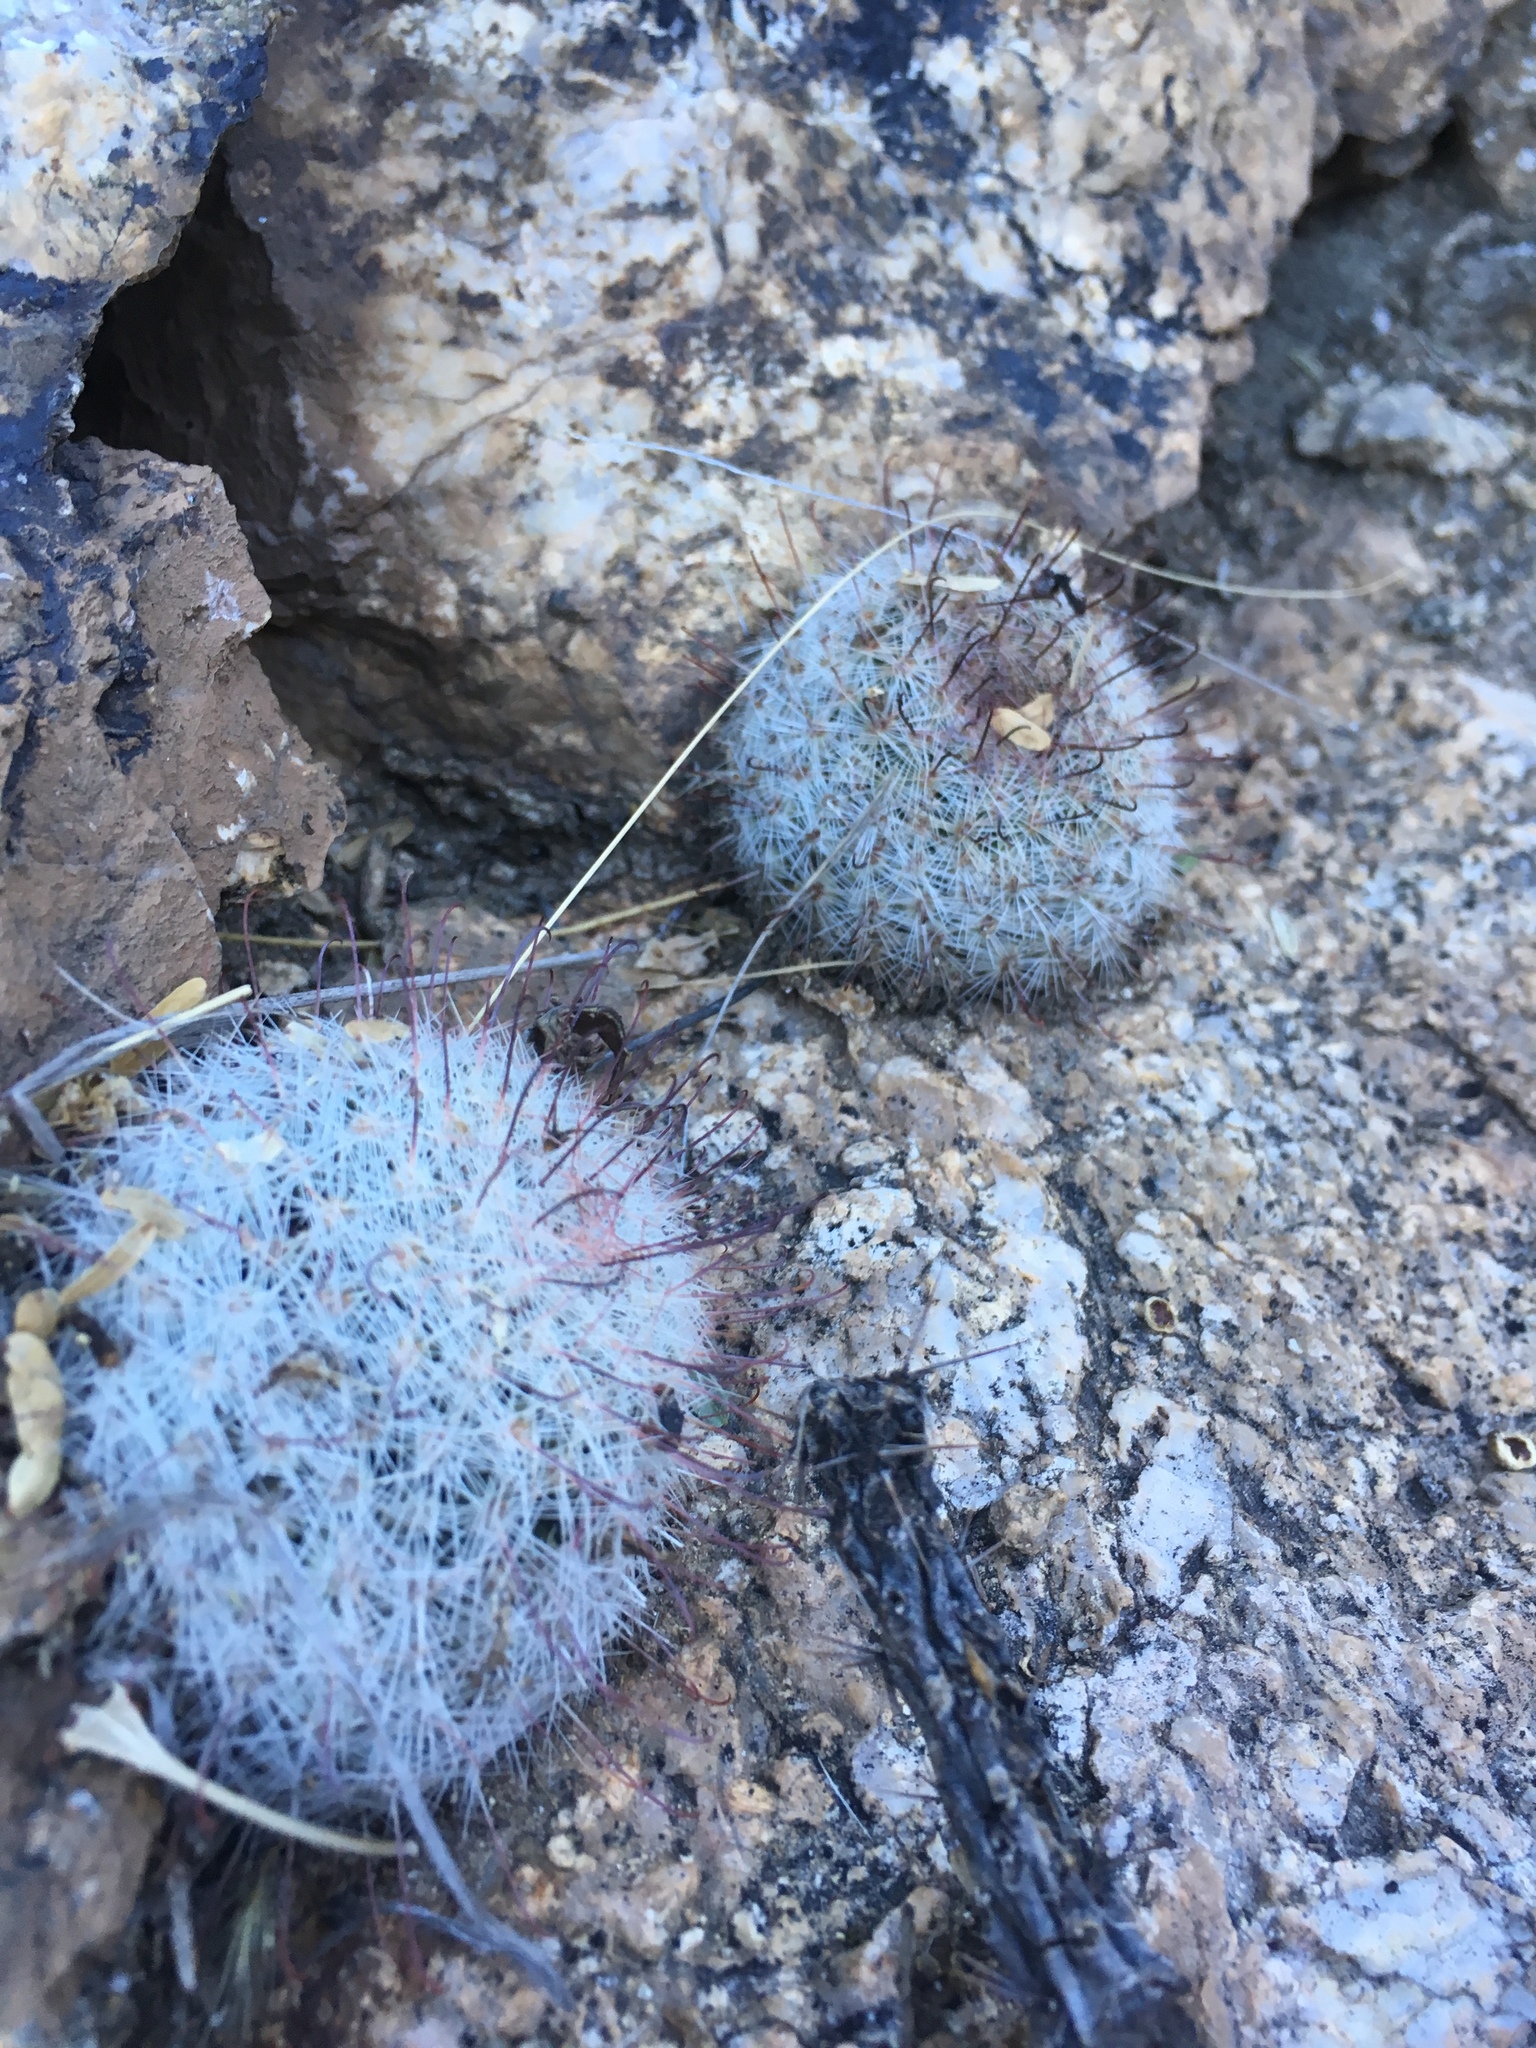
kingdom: Plantae
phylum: Tracheophyta
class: Magnoliopsida
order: Caryophyllales
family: Cactaceae
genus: Cochemiea
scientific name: Cochemiea grahamii
